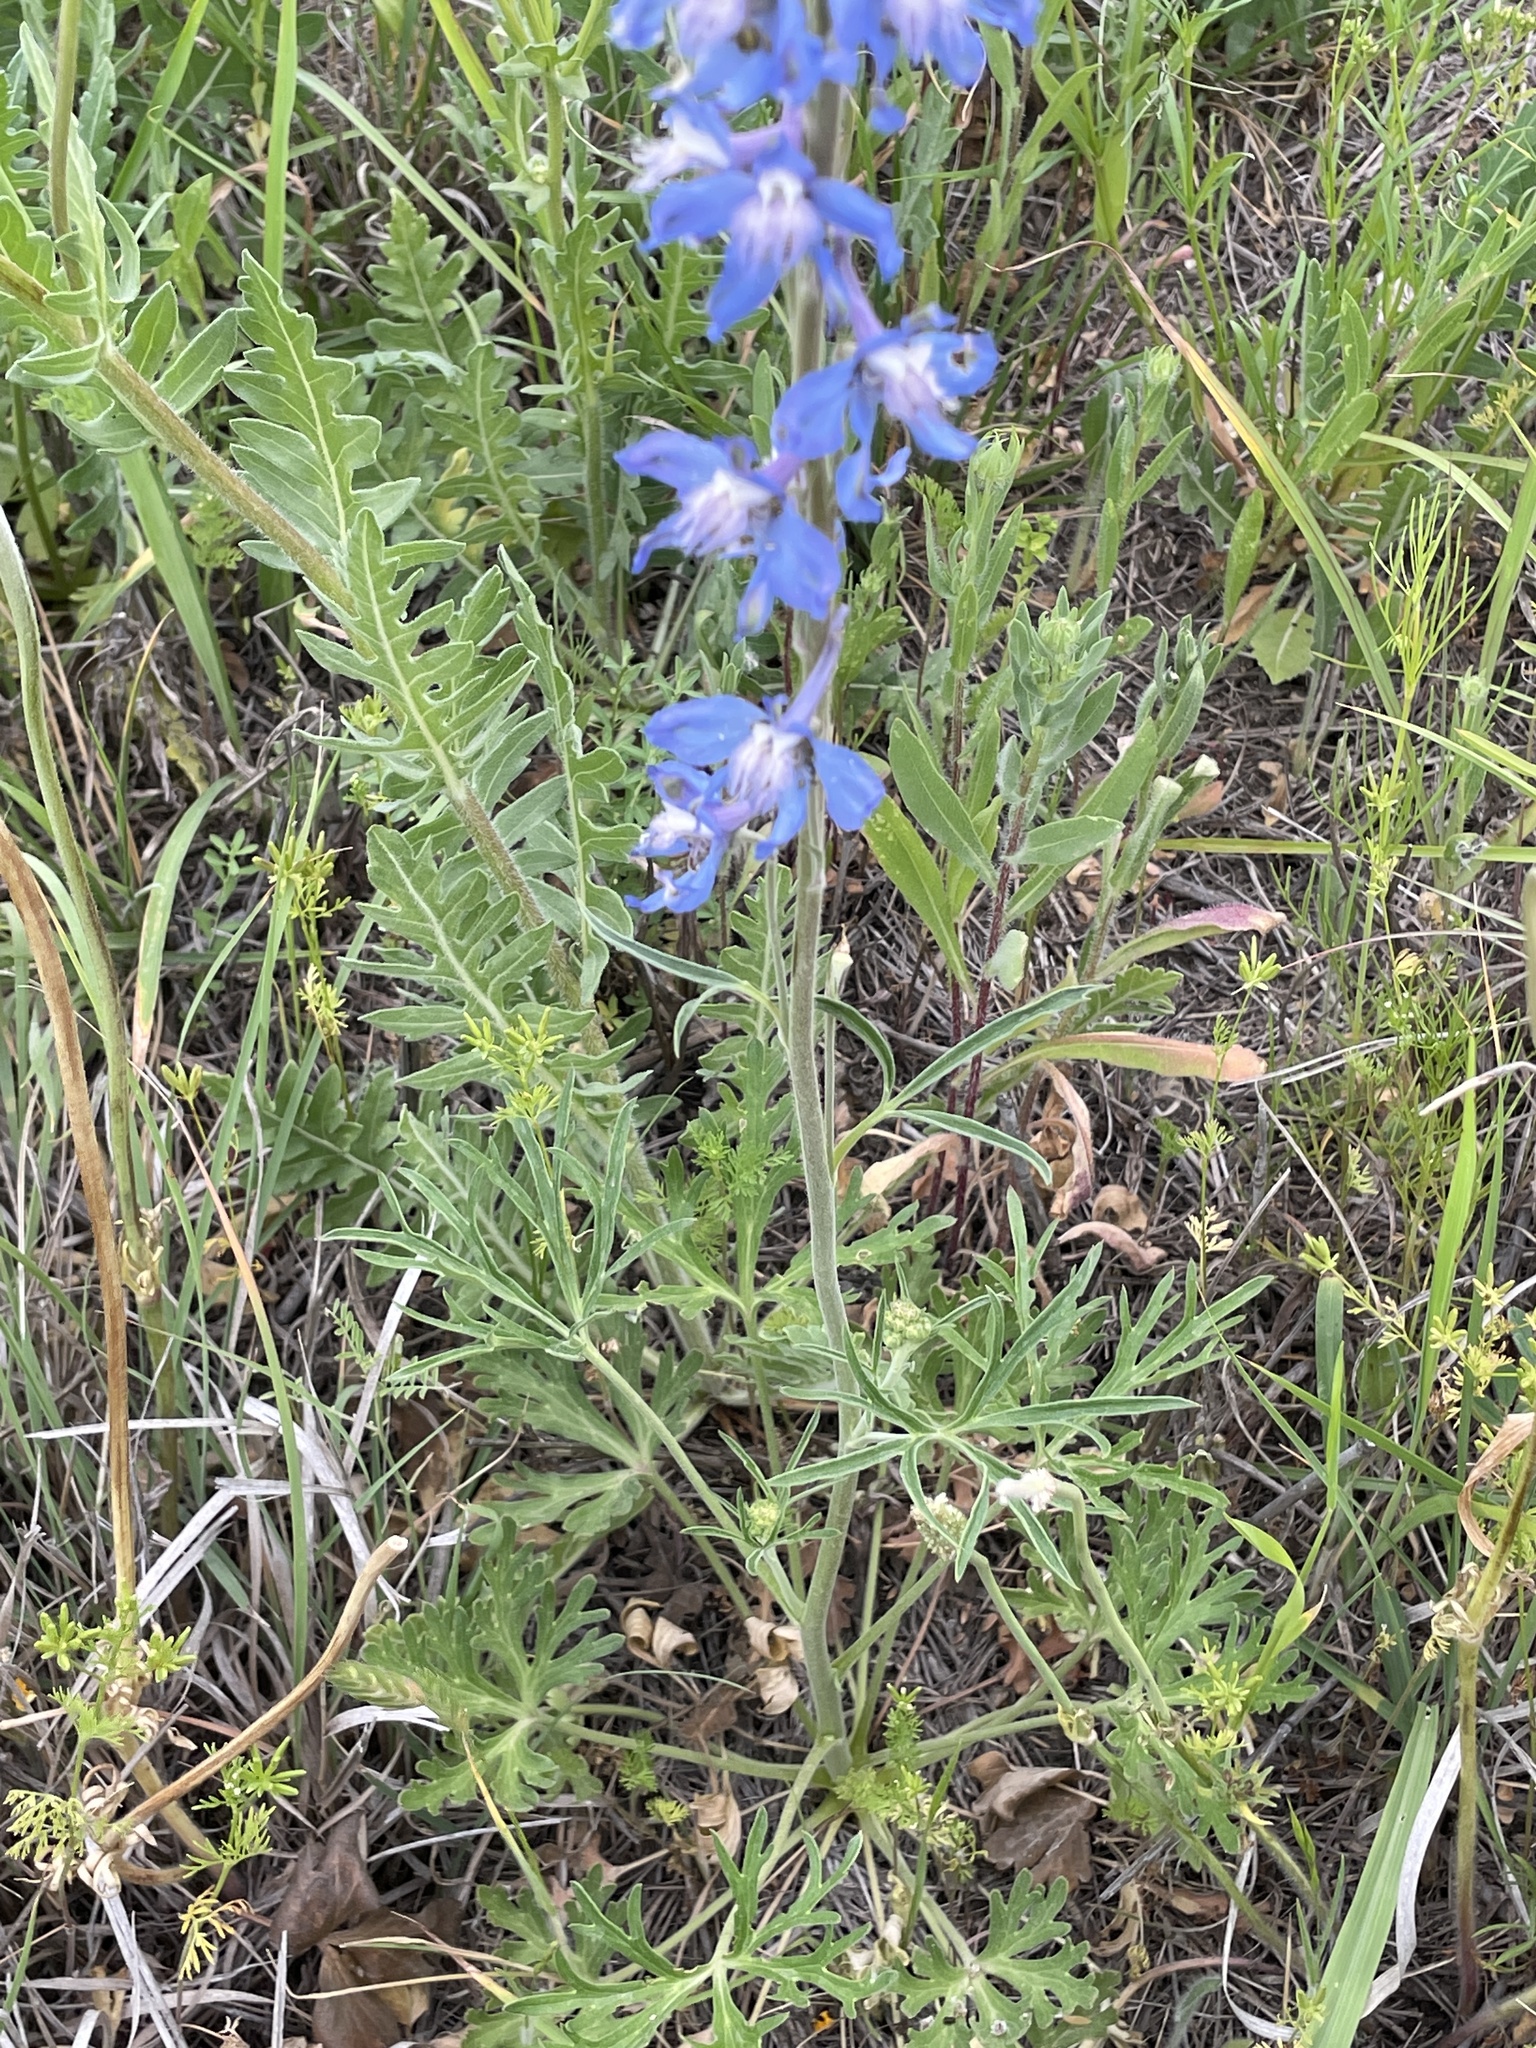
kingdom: Plantae
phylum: Tracheophyta
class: Magnoliopsida
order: Ranunculales
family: Ranunculaceae
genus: Delphinium
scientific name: Delphinium carolinianum
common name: Carolina larkspur
